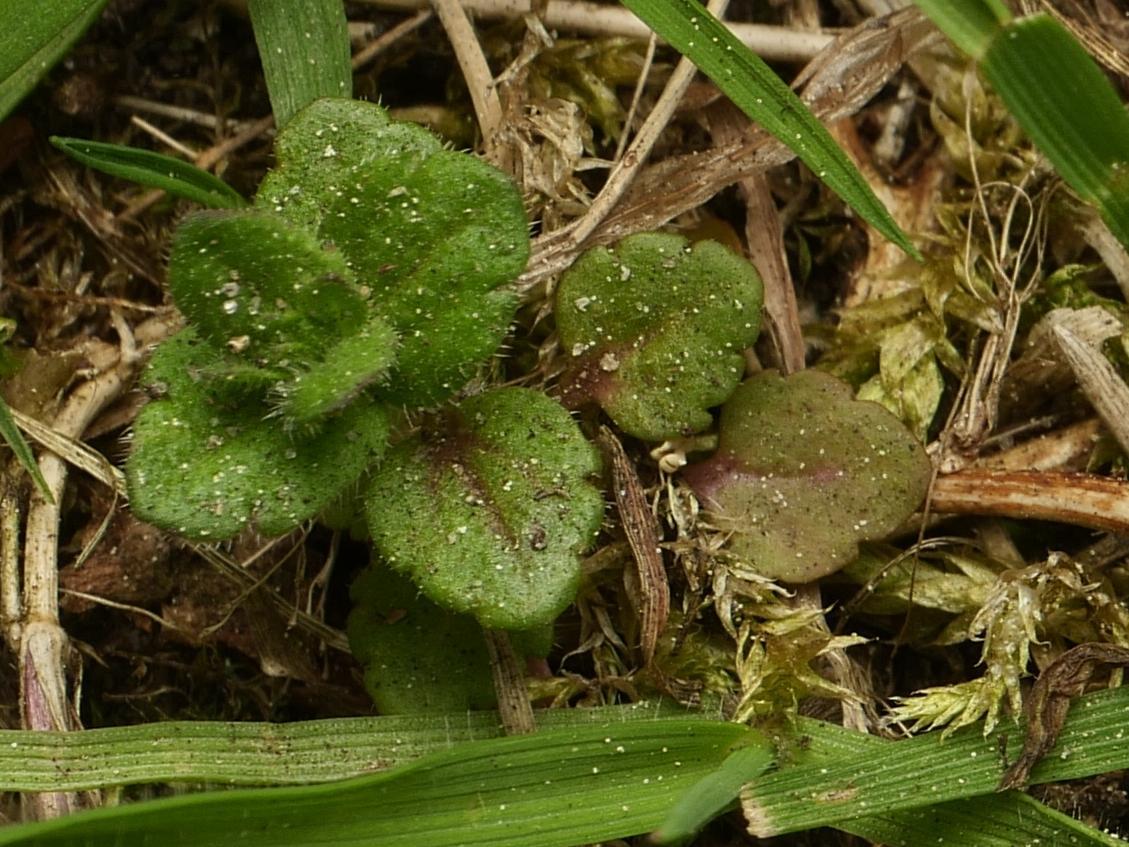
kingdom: Plantae
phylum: Tracheophyta
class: Magnoliopsida
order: Lamiales
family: Plantaginaceae
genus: Veronica
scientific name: Veronica arvensis
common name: Corn speedwell
